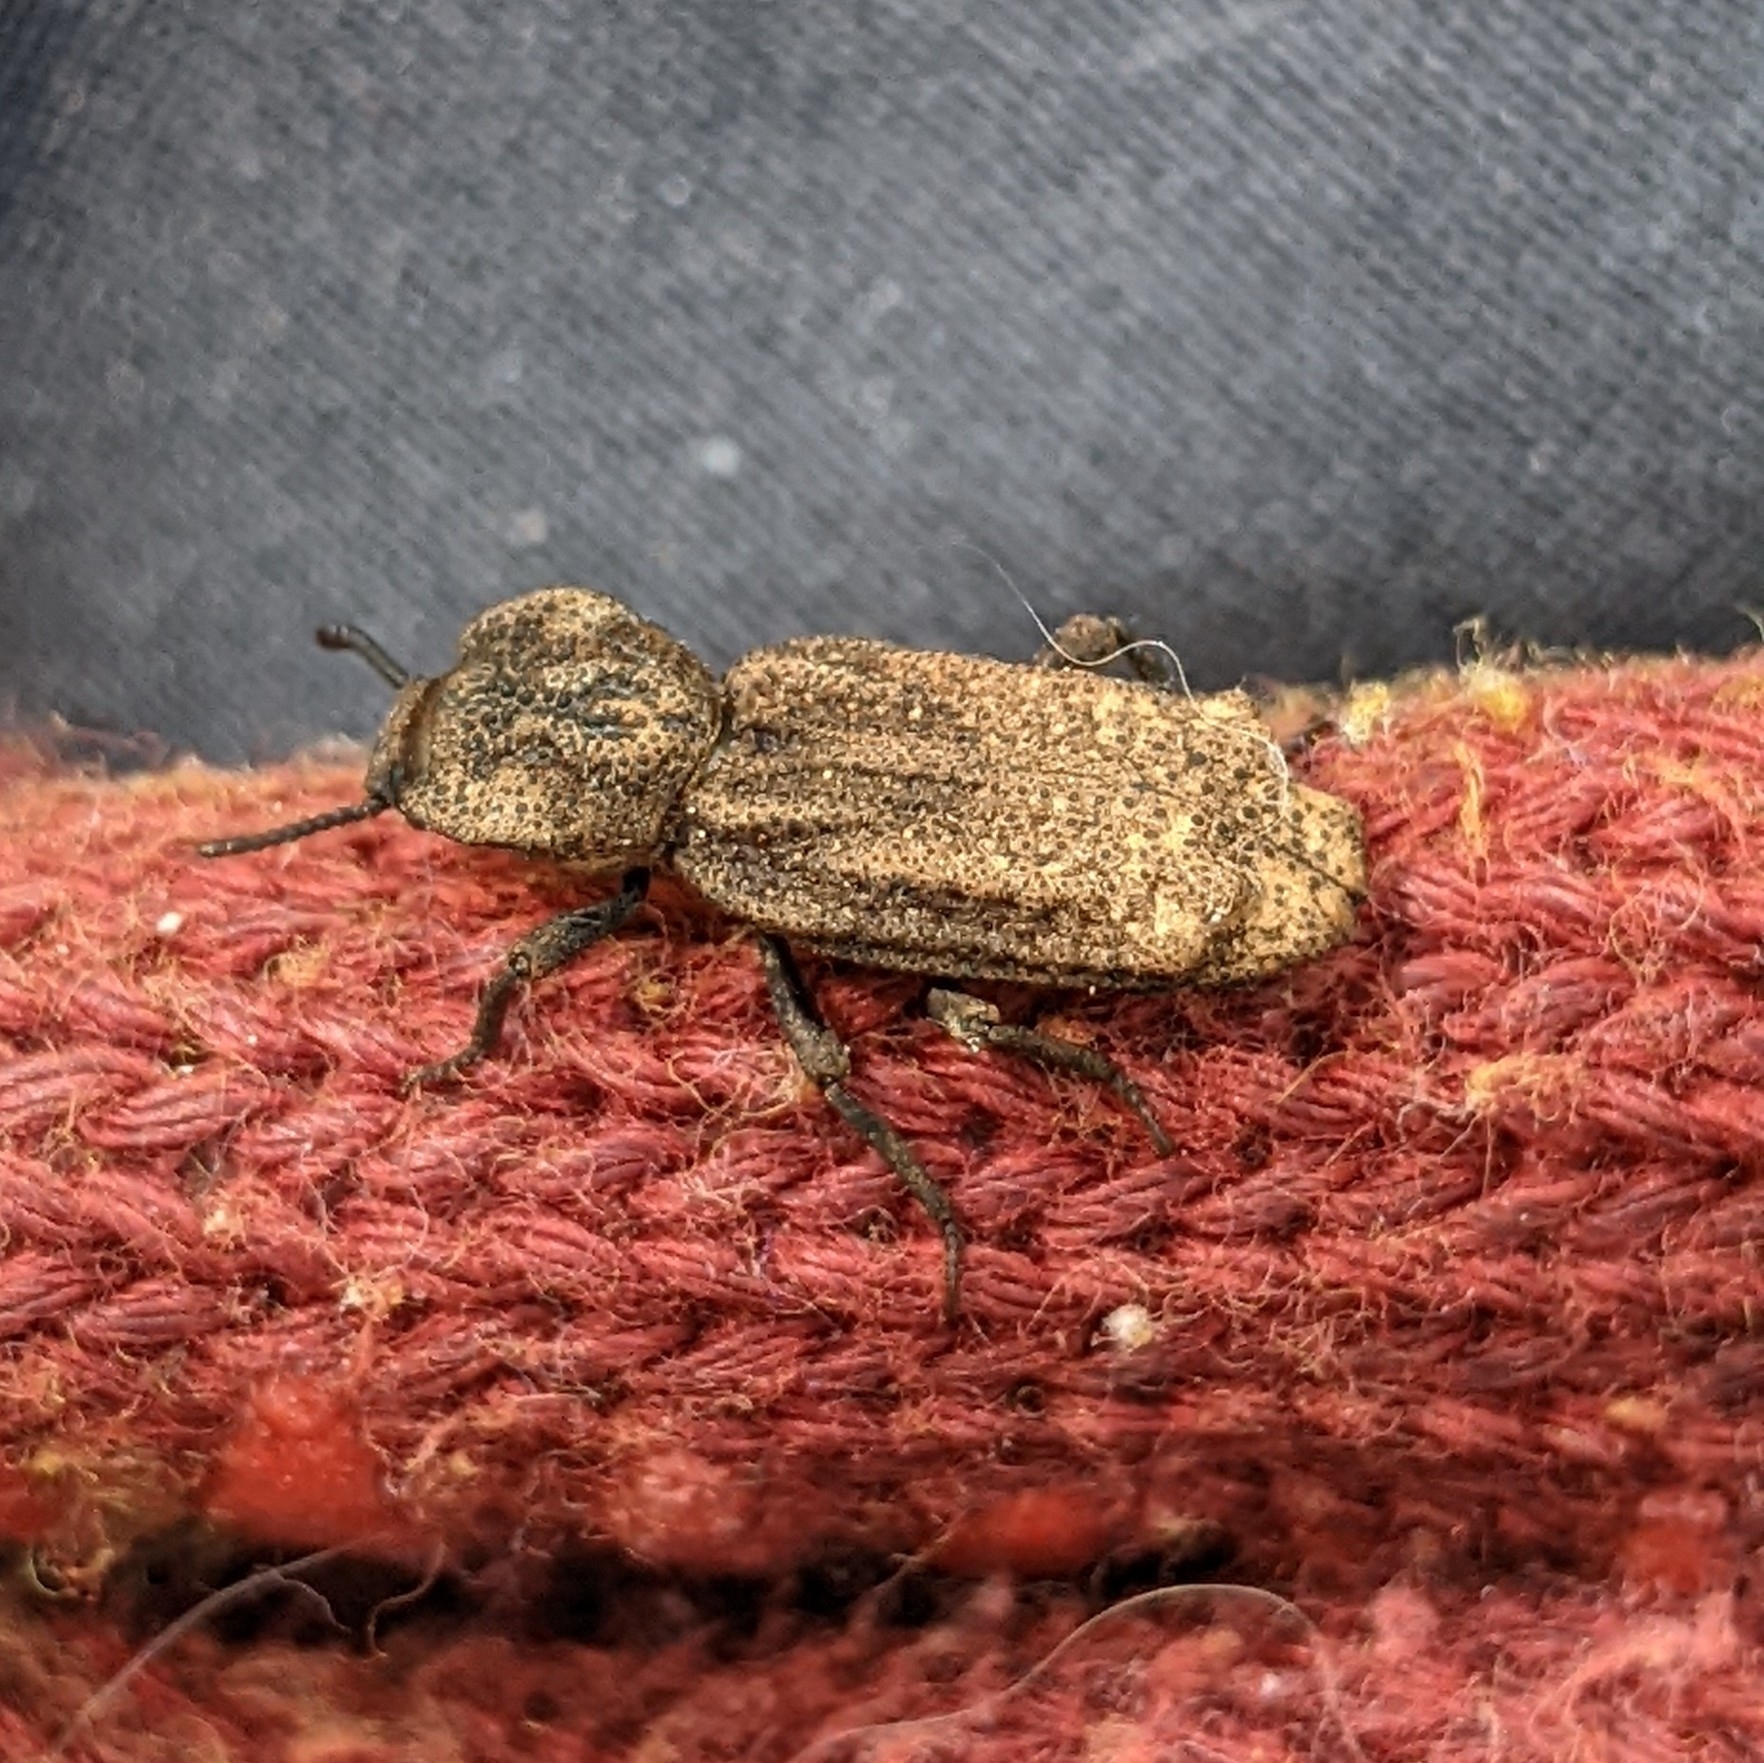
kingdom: Animalia
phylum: Arthropoda
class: Insecta
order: Coleoptera
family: Zopheridae
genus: Phellopsis
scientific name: Phellopsis porcata
